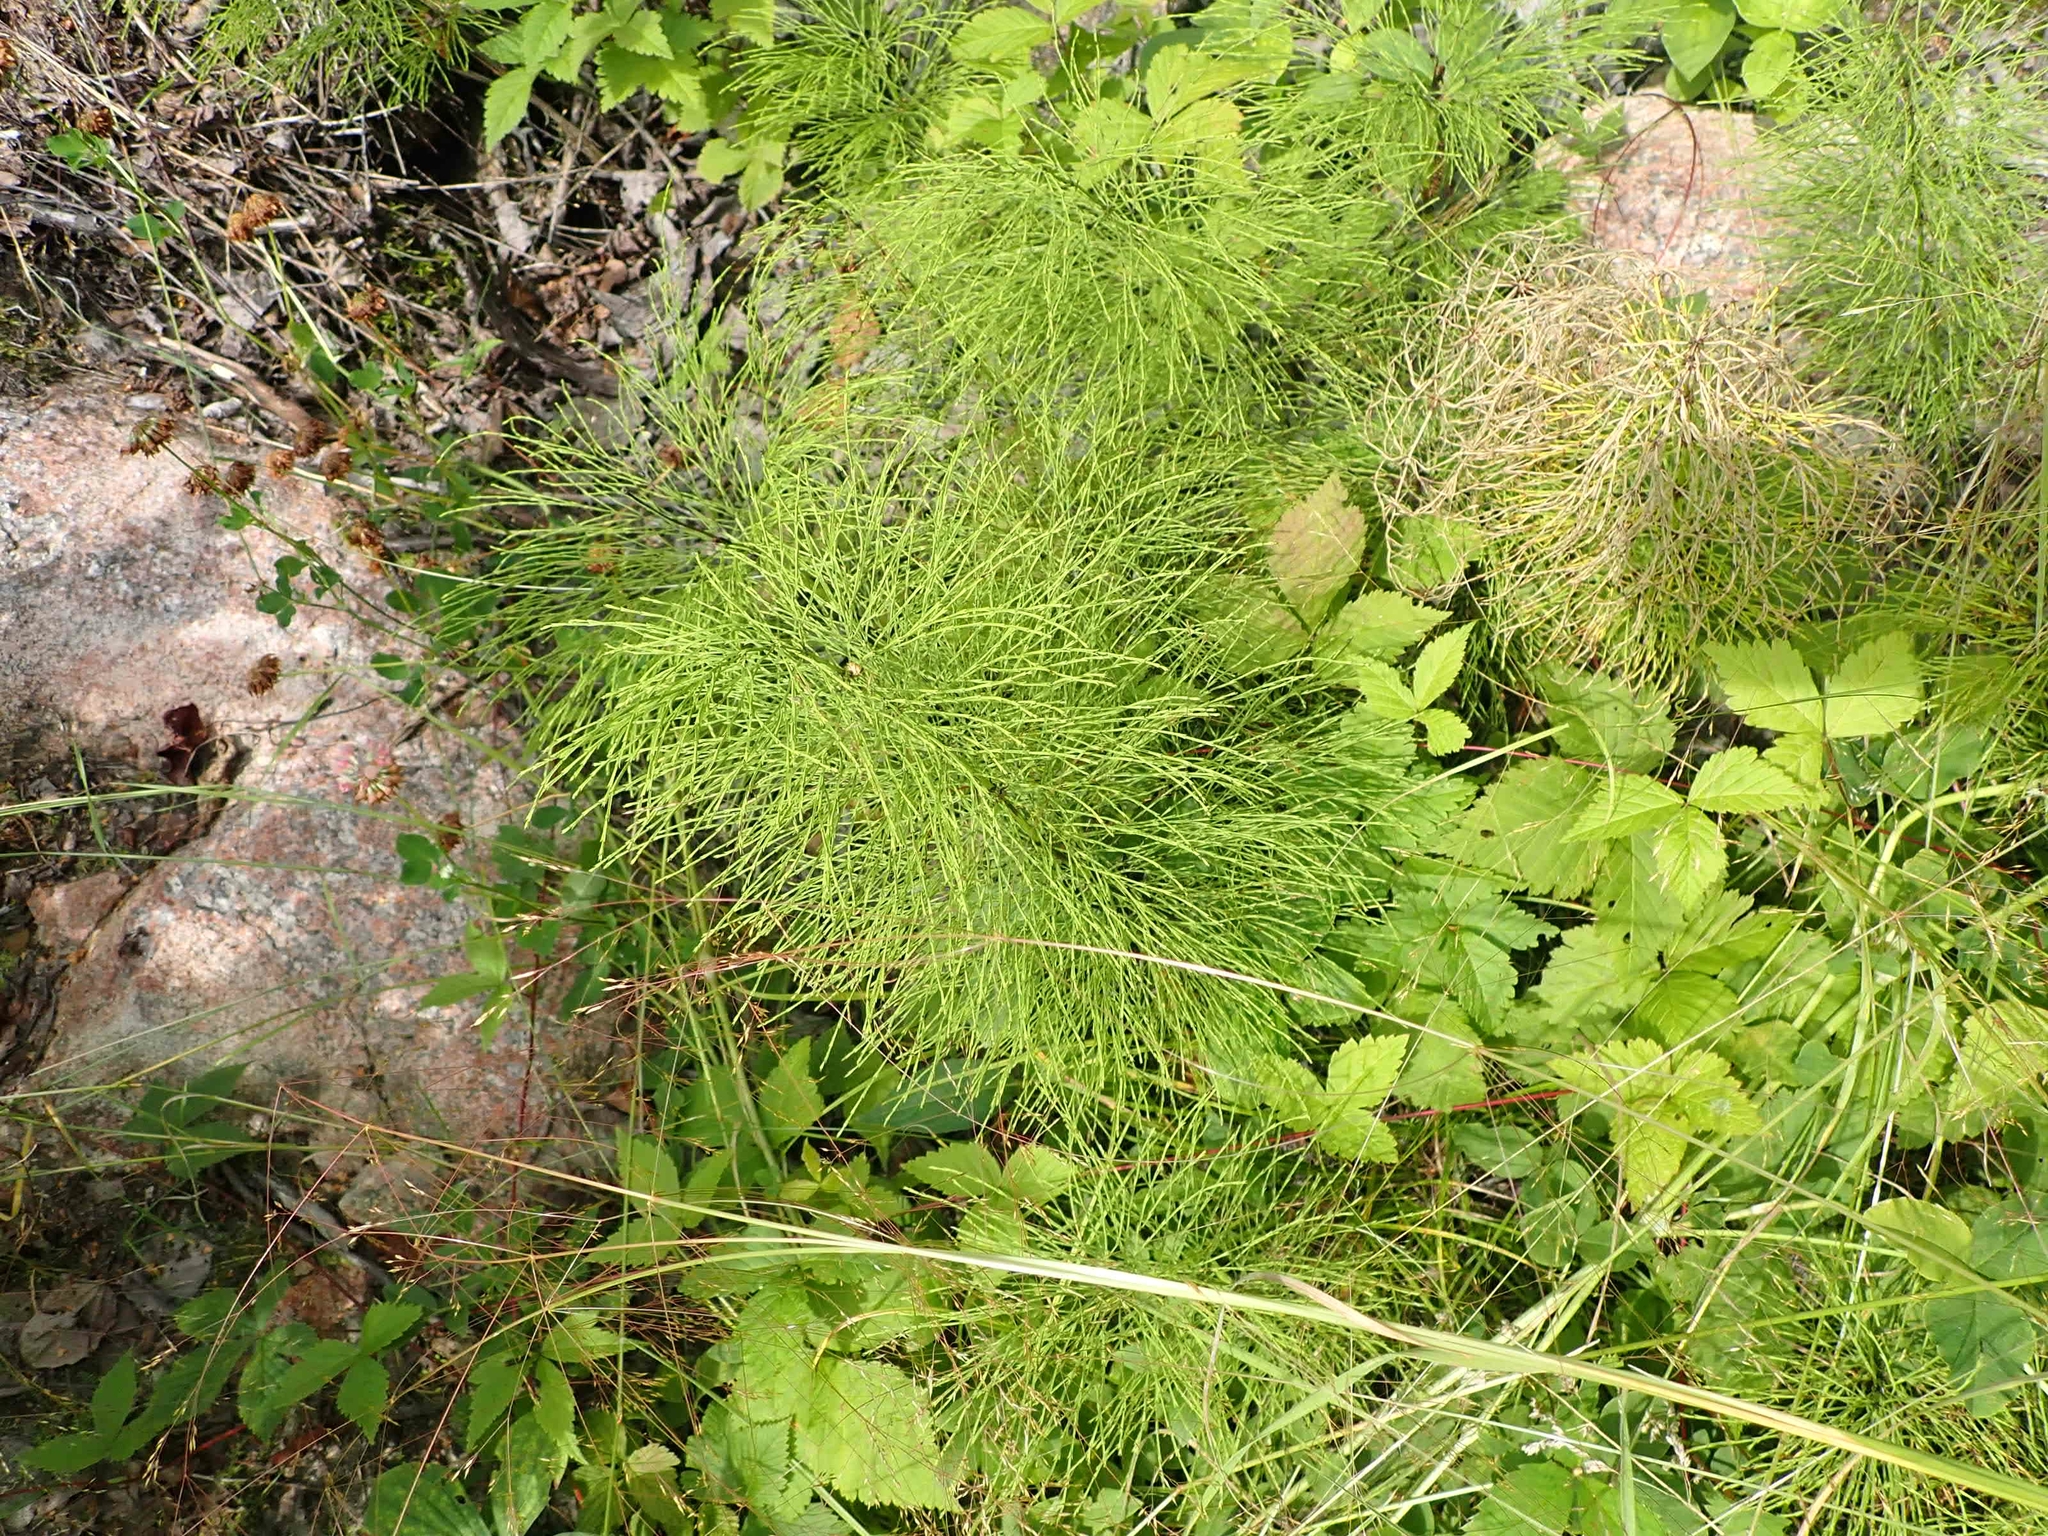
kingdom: Plantae
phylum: Tracheophyta
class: Polypodiopsida
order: Equisetales
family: Equisetaceae
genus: Equisetum
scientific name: Equisetum sylvaticum
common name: Wood horsetail
